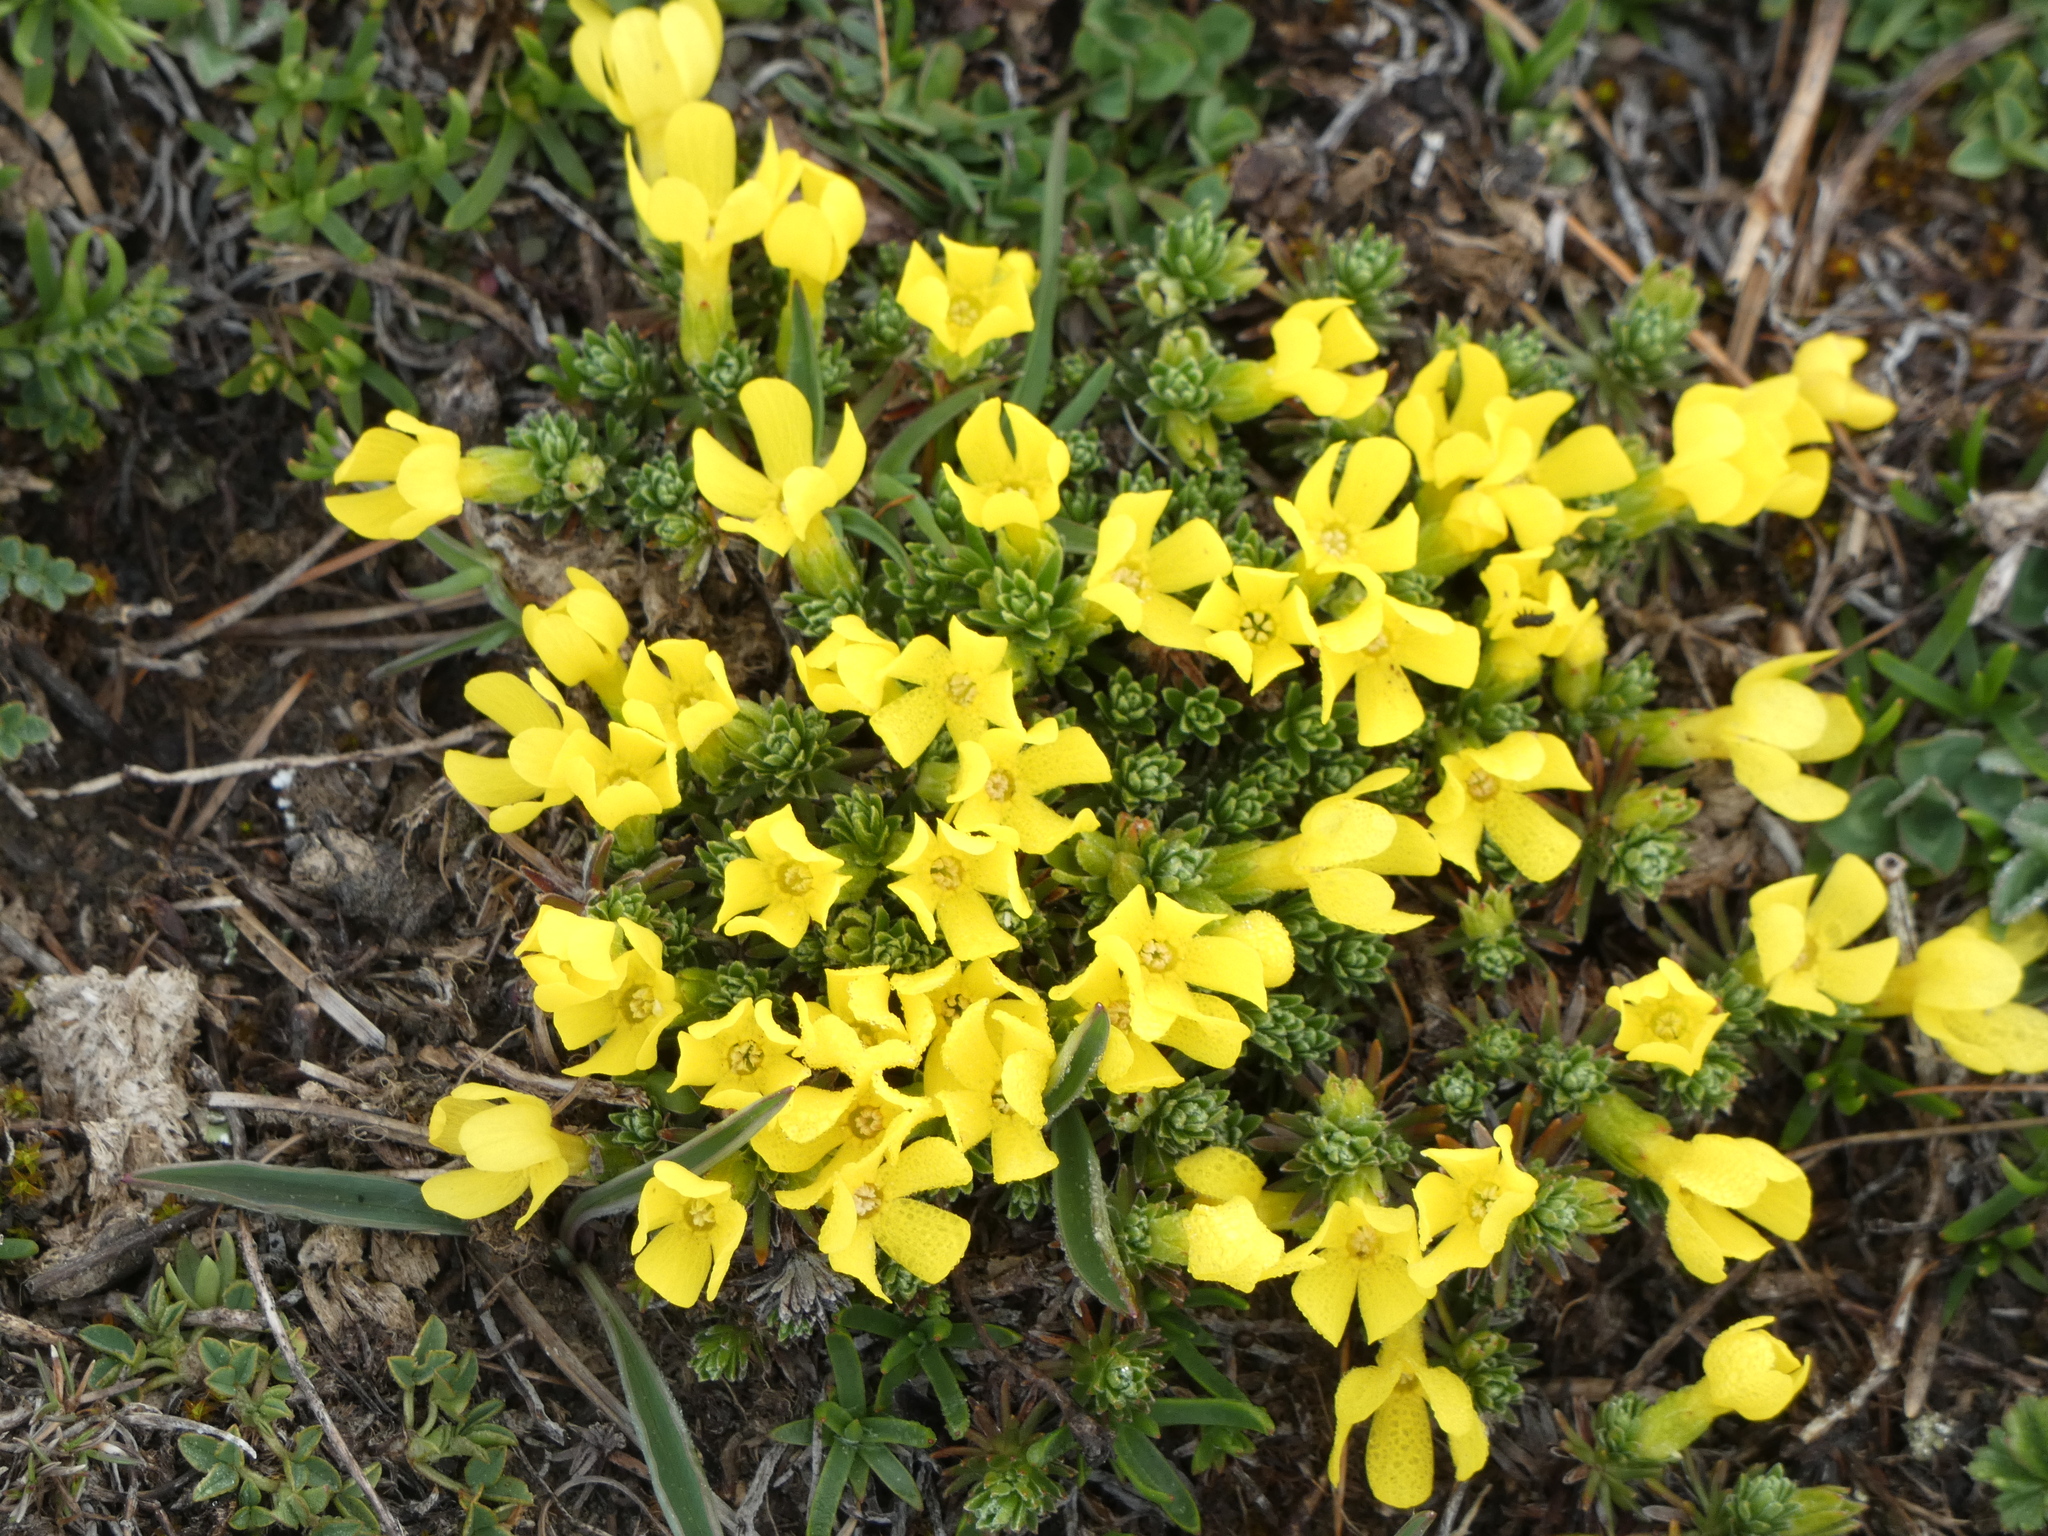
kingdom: Plantae
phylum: Tracheophyta
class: Magnoliopsida
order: Ericales
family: Primulaceae
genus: Androsace
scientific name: Androsace vitaliana
